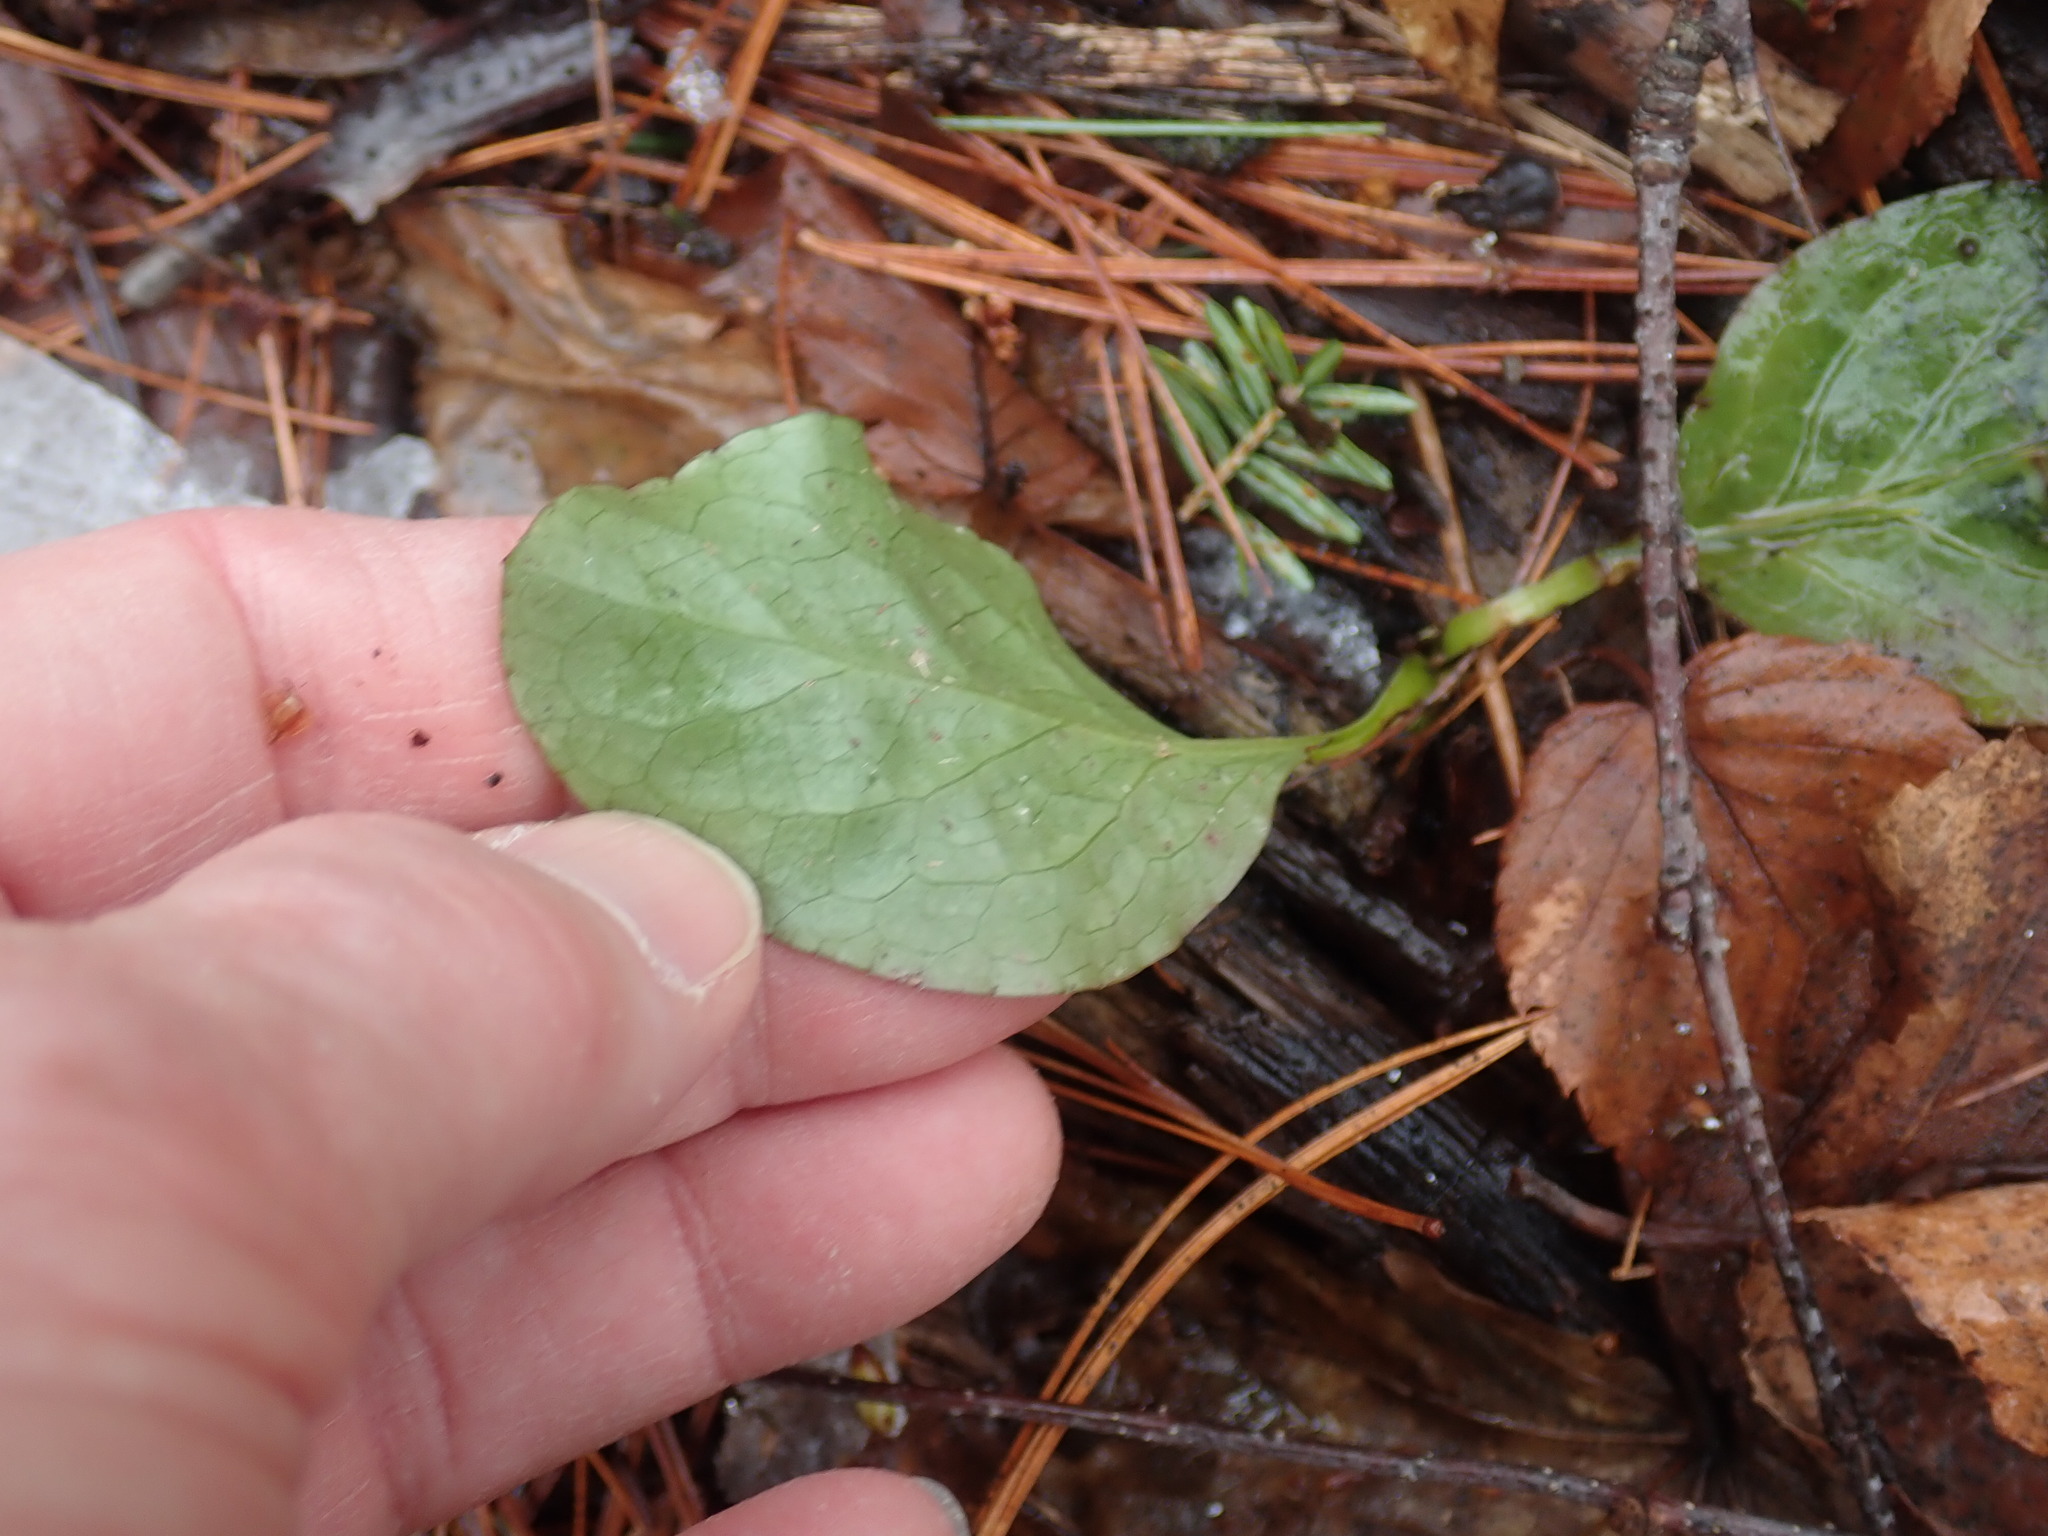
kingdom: Plantae
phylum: Tracheophyta
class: Magnoliopsida
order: Ericales
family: Ericaceae
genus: Pyrola
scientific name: Pyrola elliptica
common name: Shinleaf
